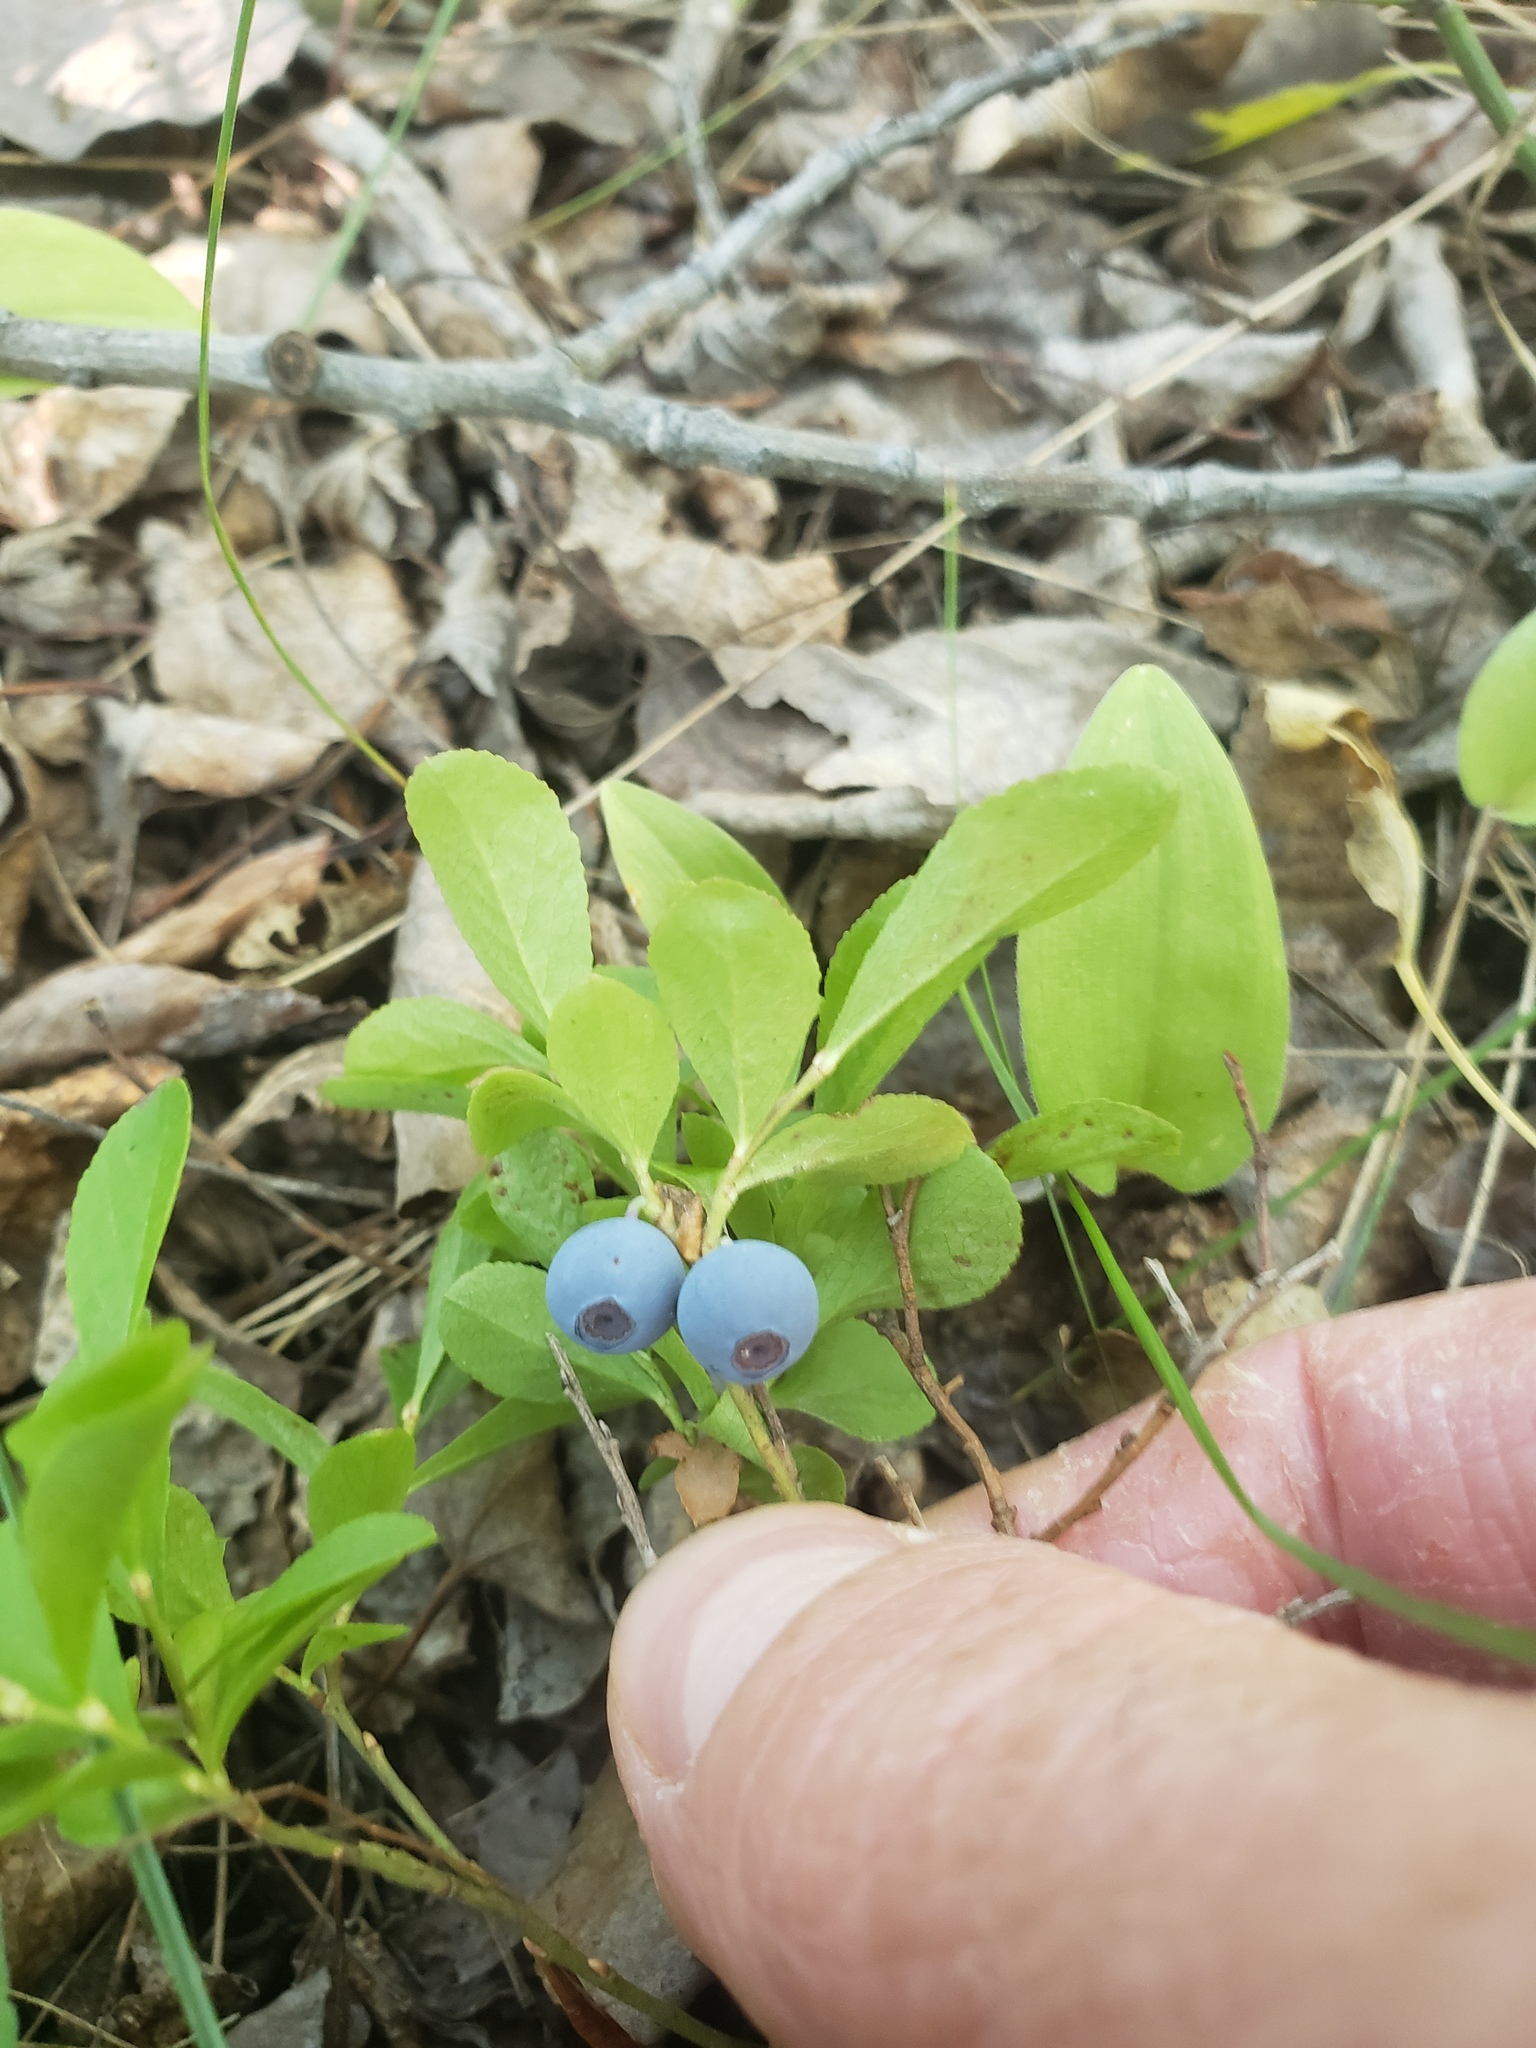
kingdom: Plantae
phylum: Tracheophyta
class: Magnoliopsida
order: Ericales
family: Ericaceae
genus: Vaccinium
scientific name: Vaccinium cespitosum
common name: Dwarf bilberry
